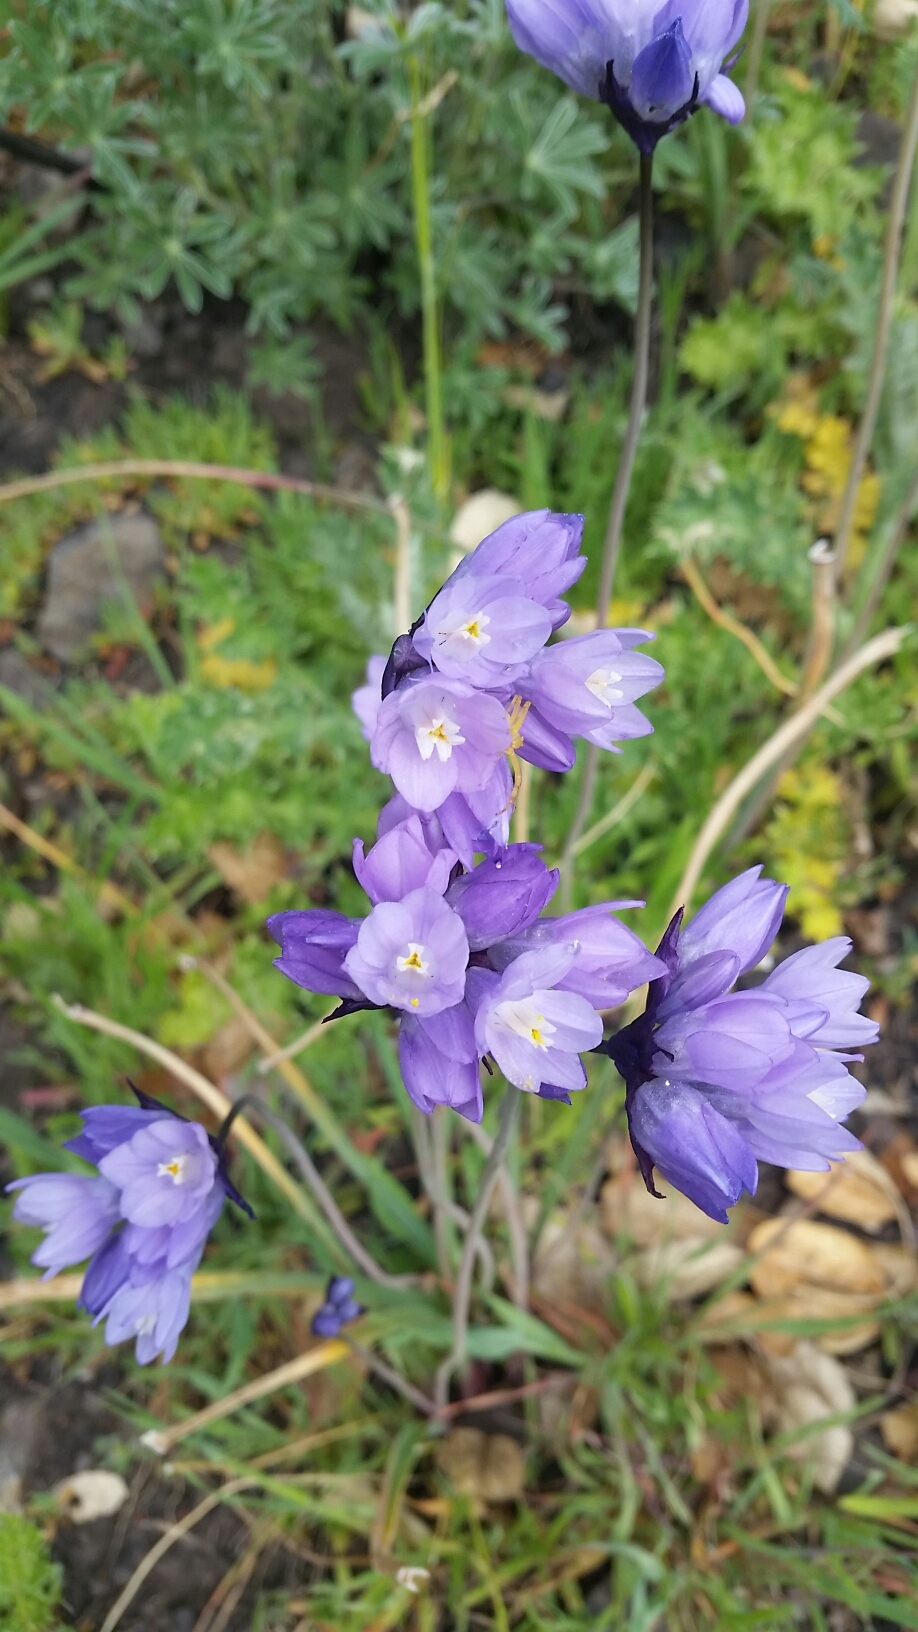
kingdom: Plantae
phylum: Tracheophyta
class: Liliopsida
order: Asparagales
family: Asparagaceae
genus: Dipterostemon
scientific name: Dipterostemon capitatus
